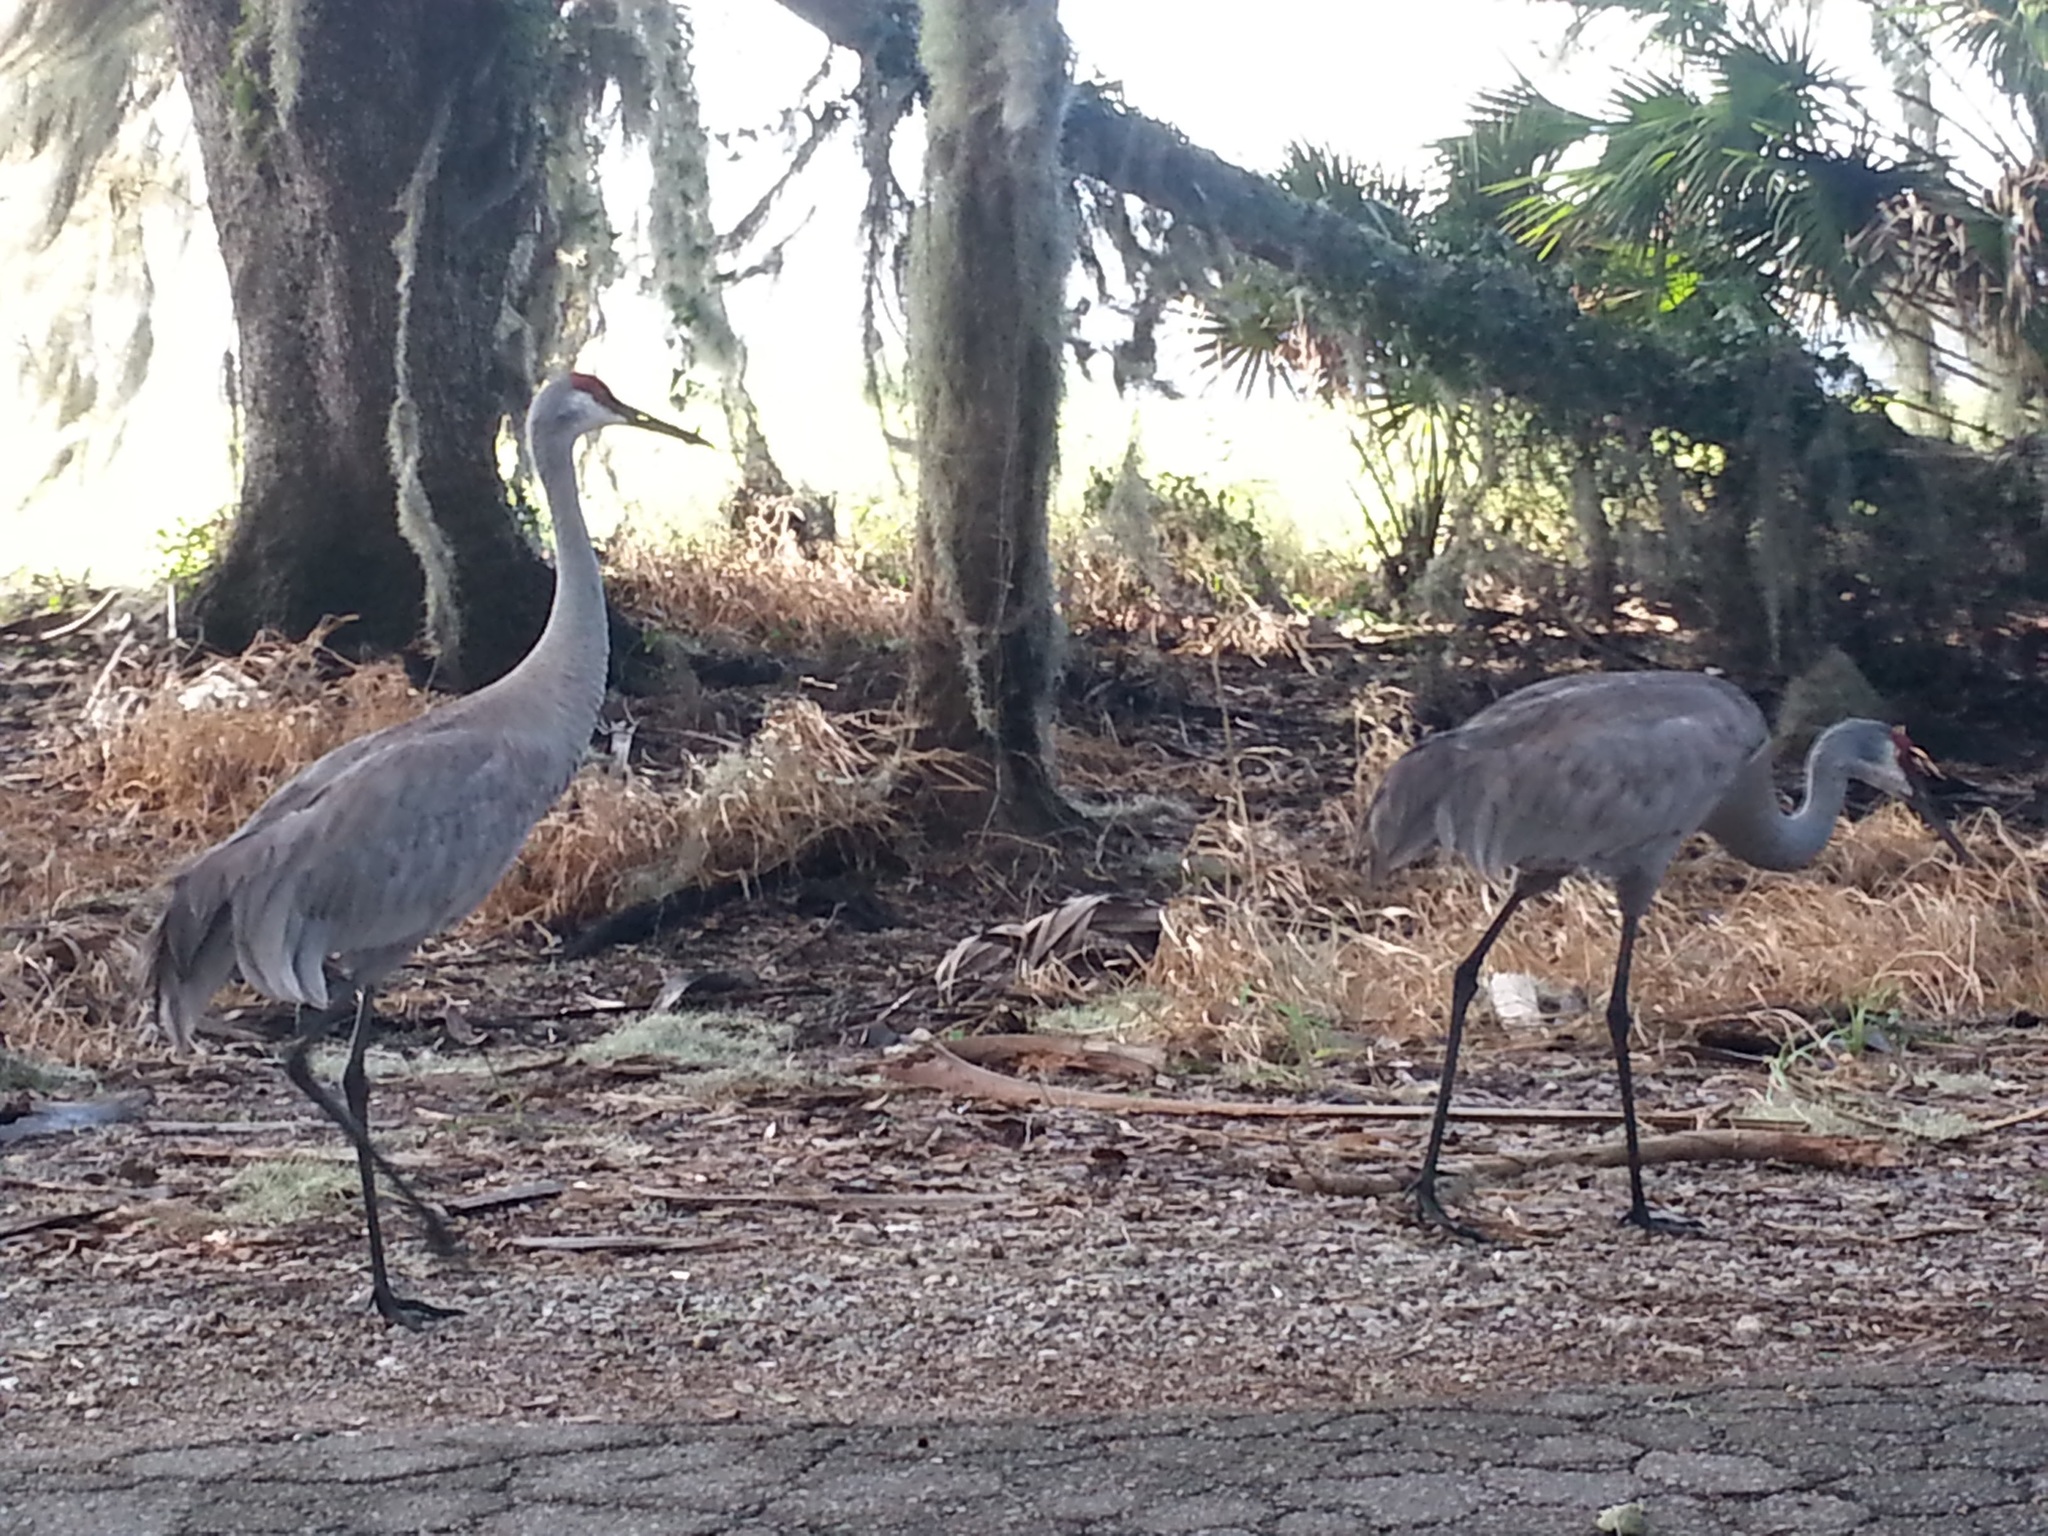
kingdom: Animalia
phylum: Chordata
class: Aves
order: Gruiformes
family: Gruidae
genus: Grus
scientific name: Grus canadensis
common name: Sandhill crane
